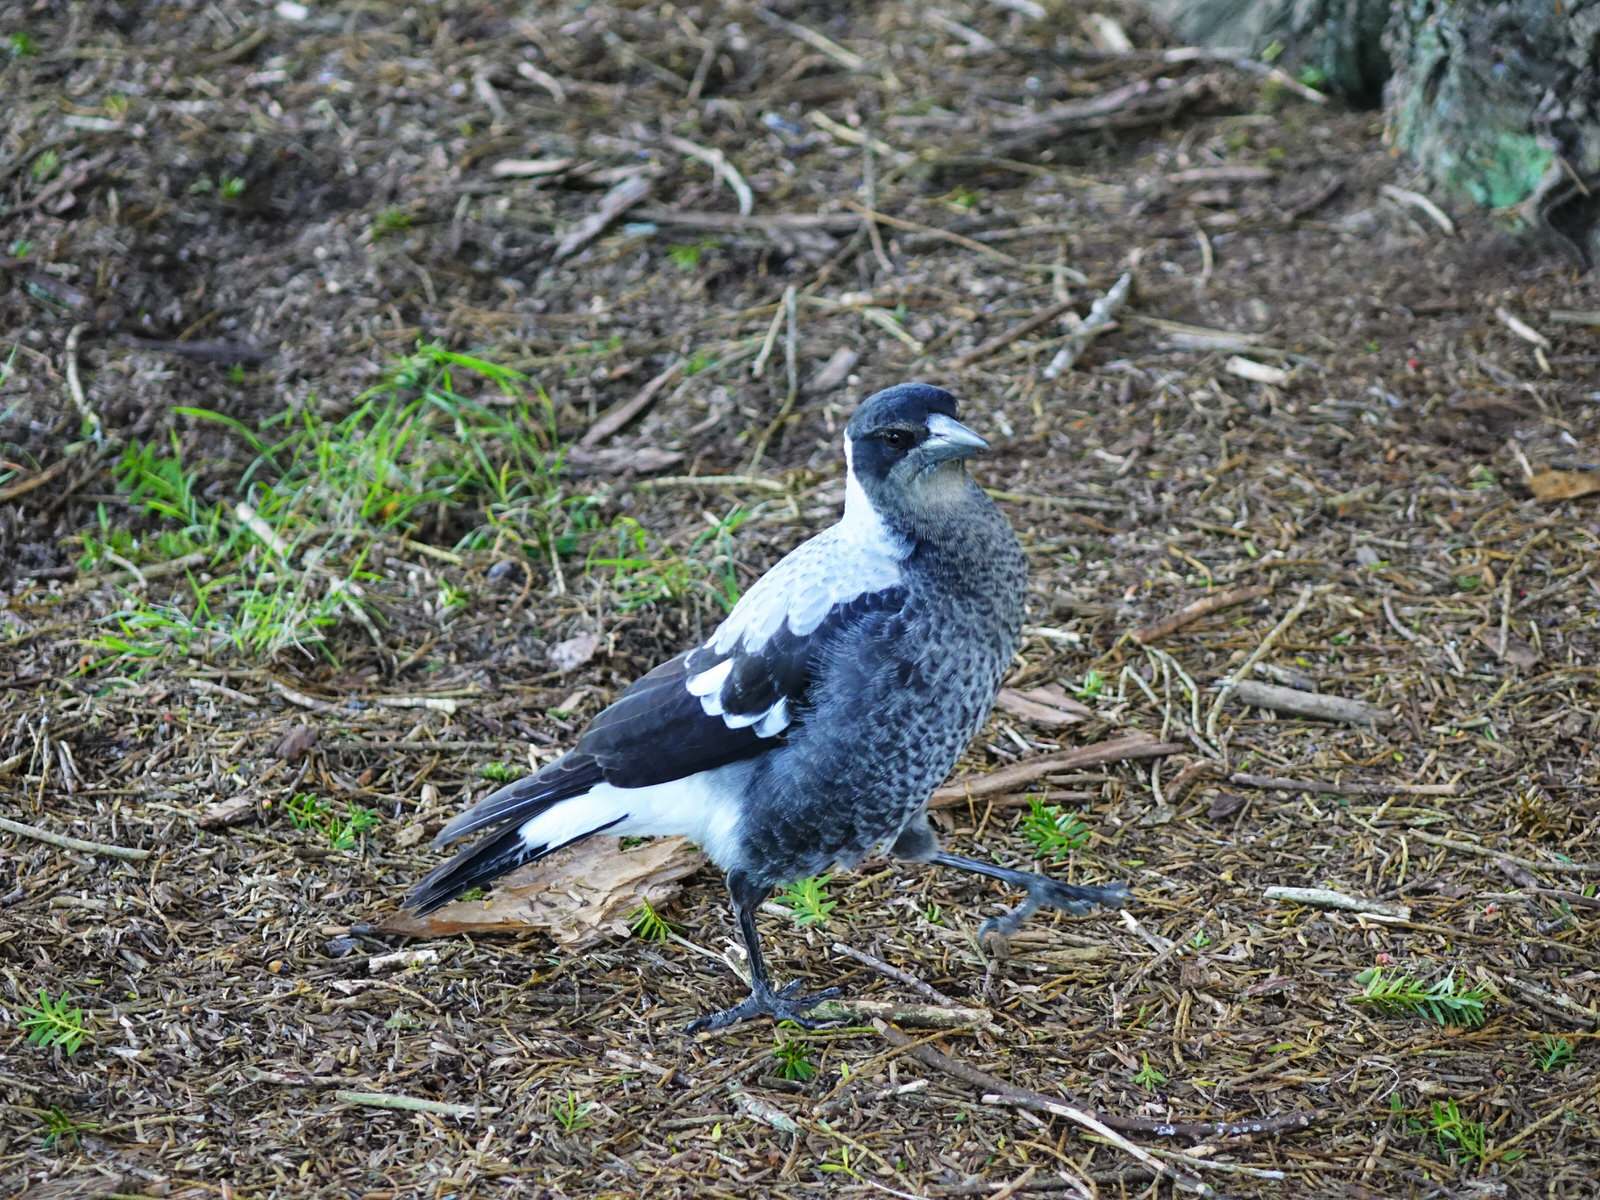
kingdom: Animalia
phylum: Chordata
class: Aves
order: Passeriformes
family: Cracticidae
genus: Gymnorhina
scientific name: Gymnorhina tibicen
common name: Australian magpie
